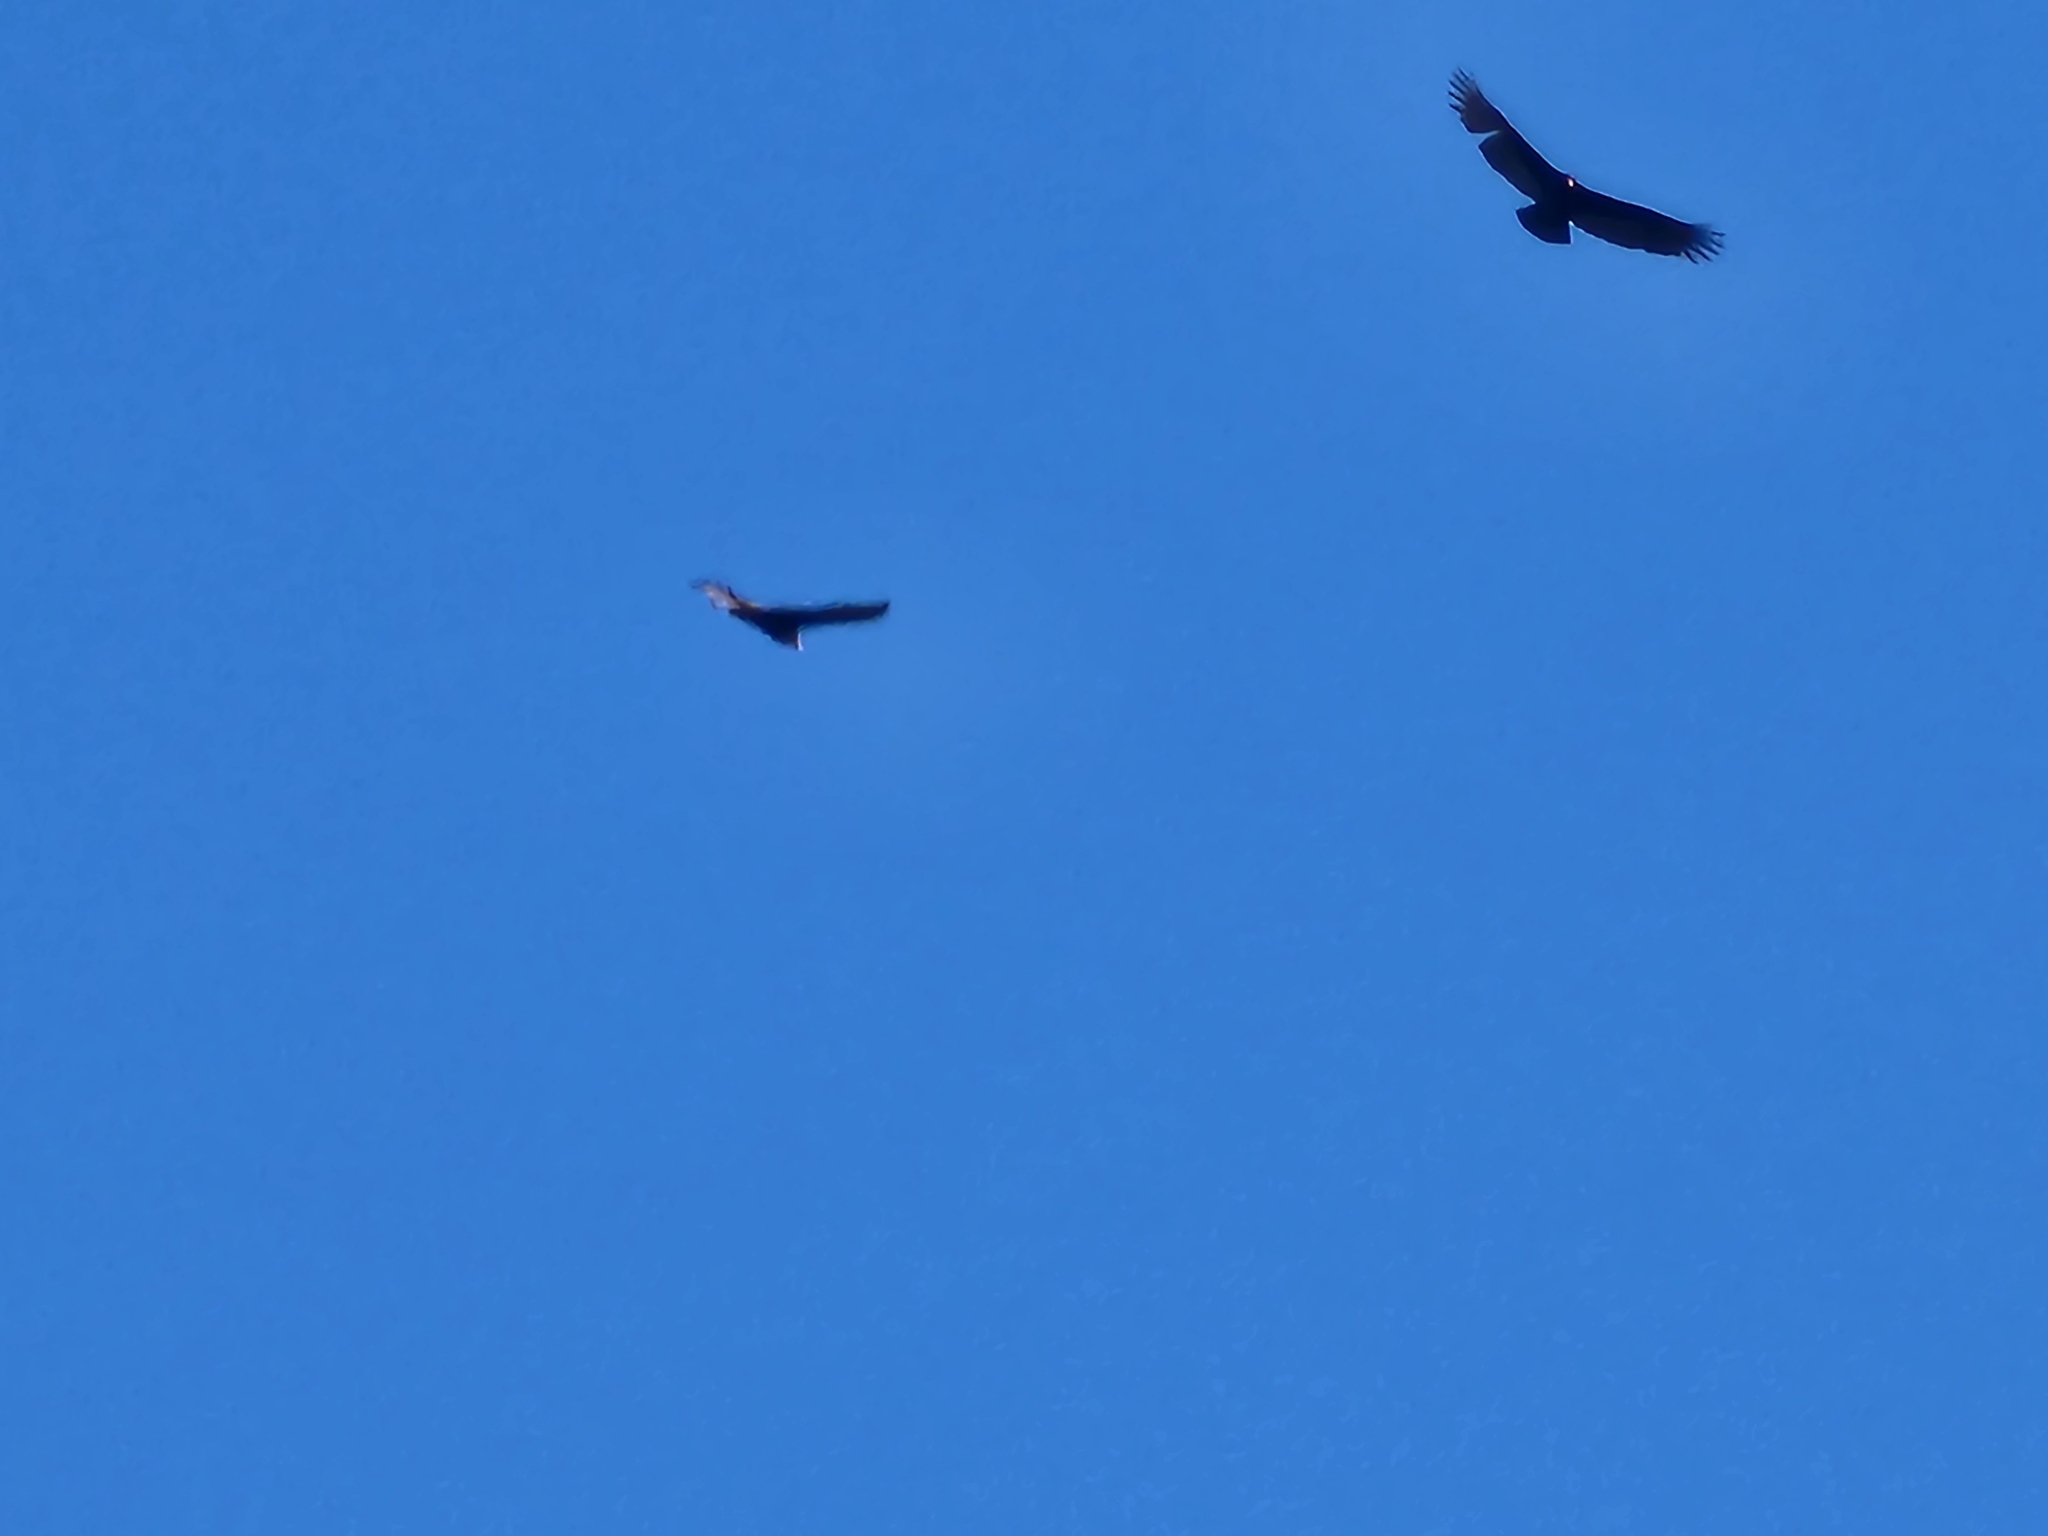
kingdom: Animalia
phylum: Chordata
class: Aves
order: Accipitriformes
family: Cathartidae
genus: Cathartes
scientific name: Cathartes aura
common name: Turkey vulture
